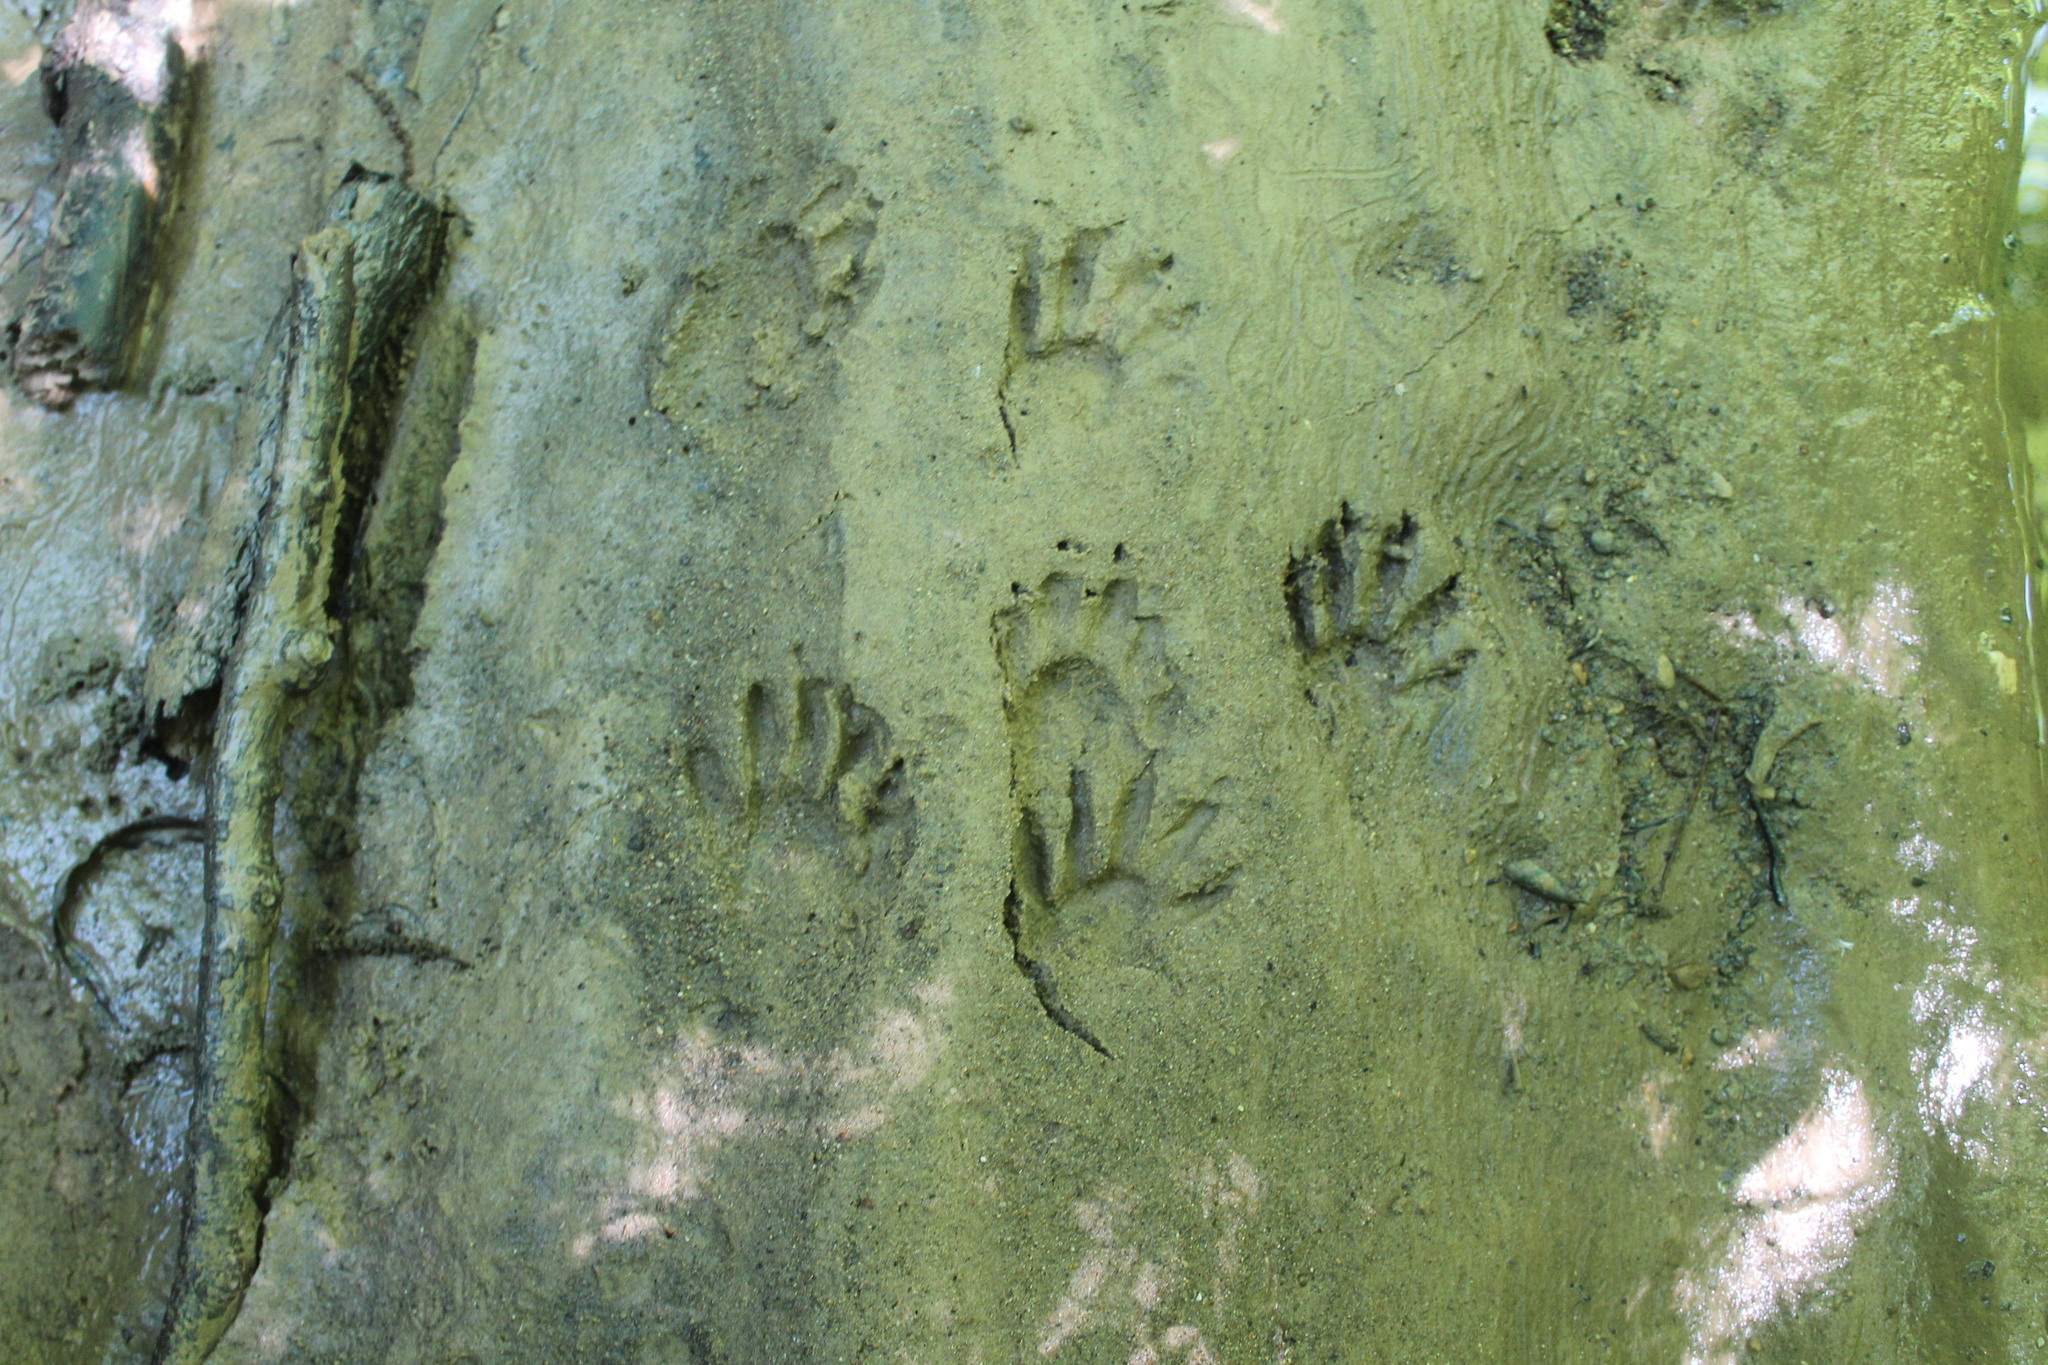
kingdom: Animalia
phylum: Chordata
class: Mammalia
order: Carnivora
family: Procyonidae
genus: Procyon
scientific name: Procyon lotor
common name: Raccoon
